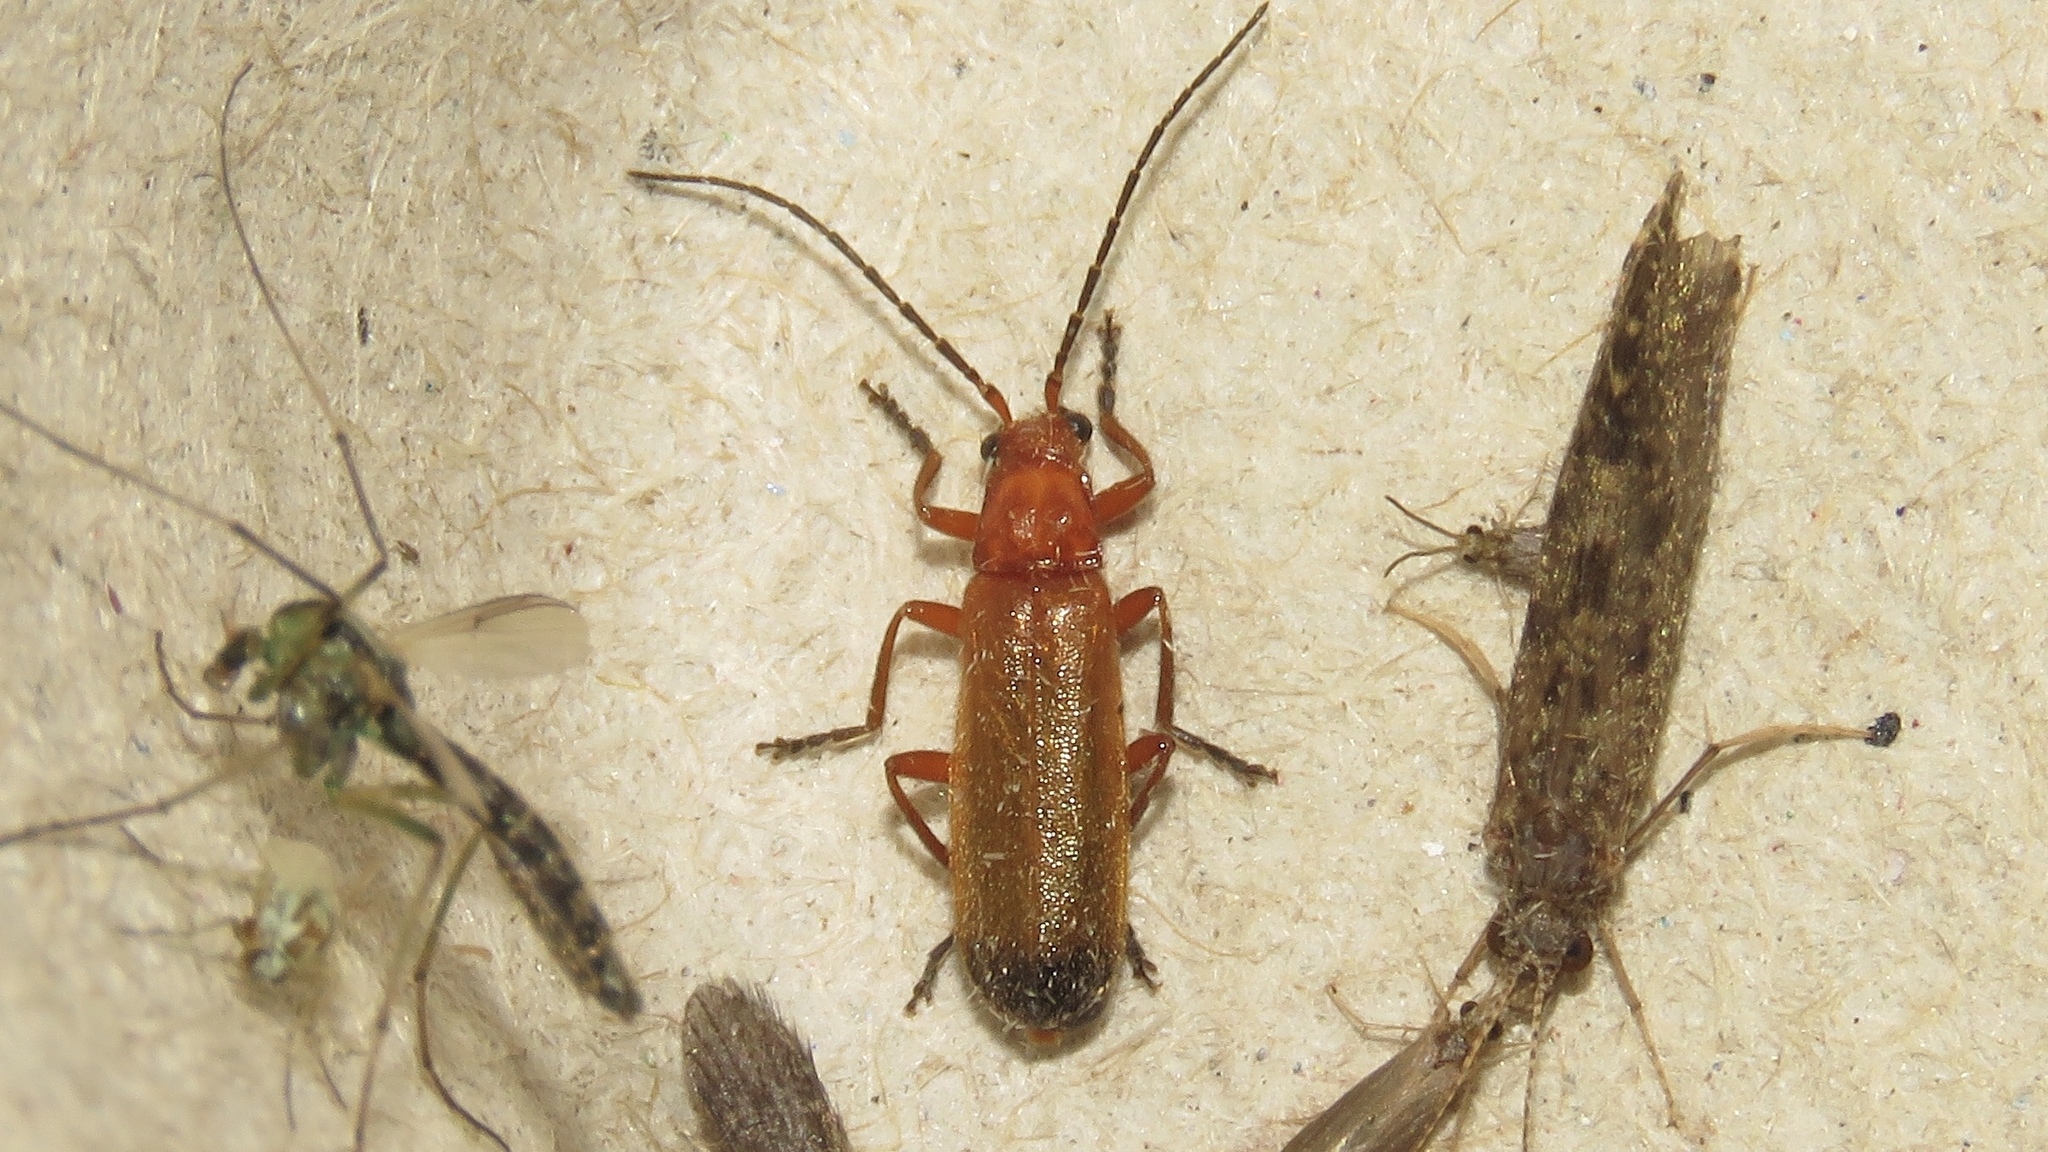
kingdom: Animalia
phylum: Arthropoda
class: Insecta
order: Coleoptera
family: Cantharidae
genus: Rhagonycha
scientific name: Rhagonycha fulva
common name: Common red soldier beetle
